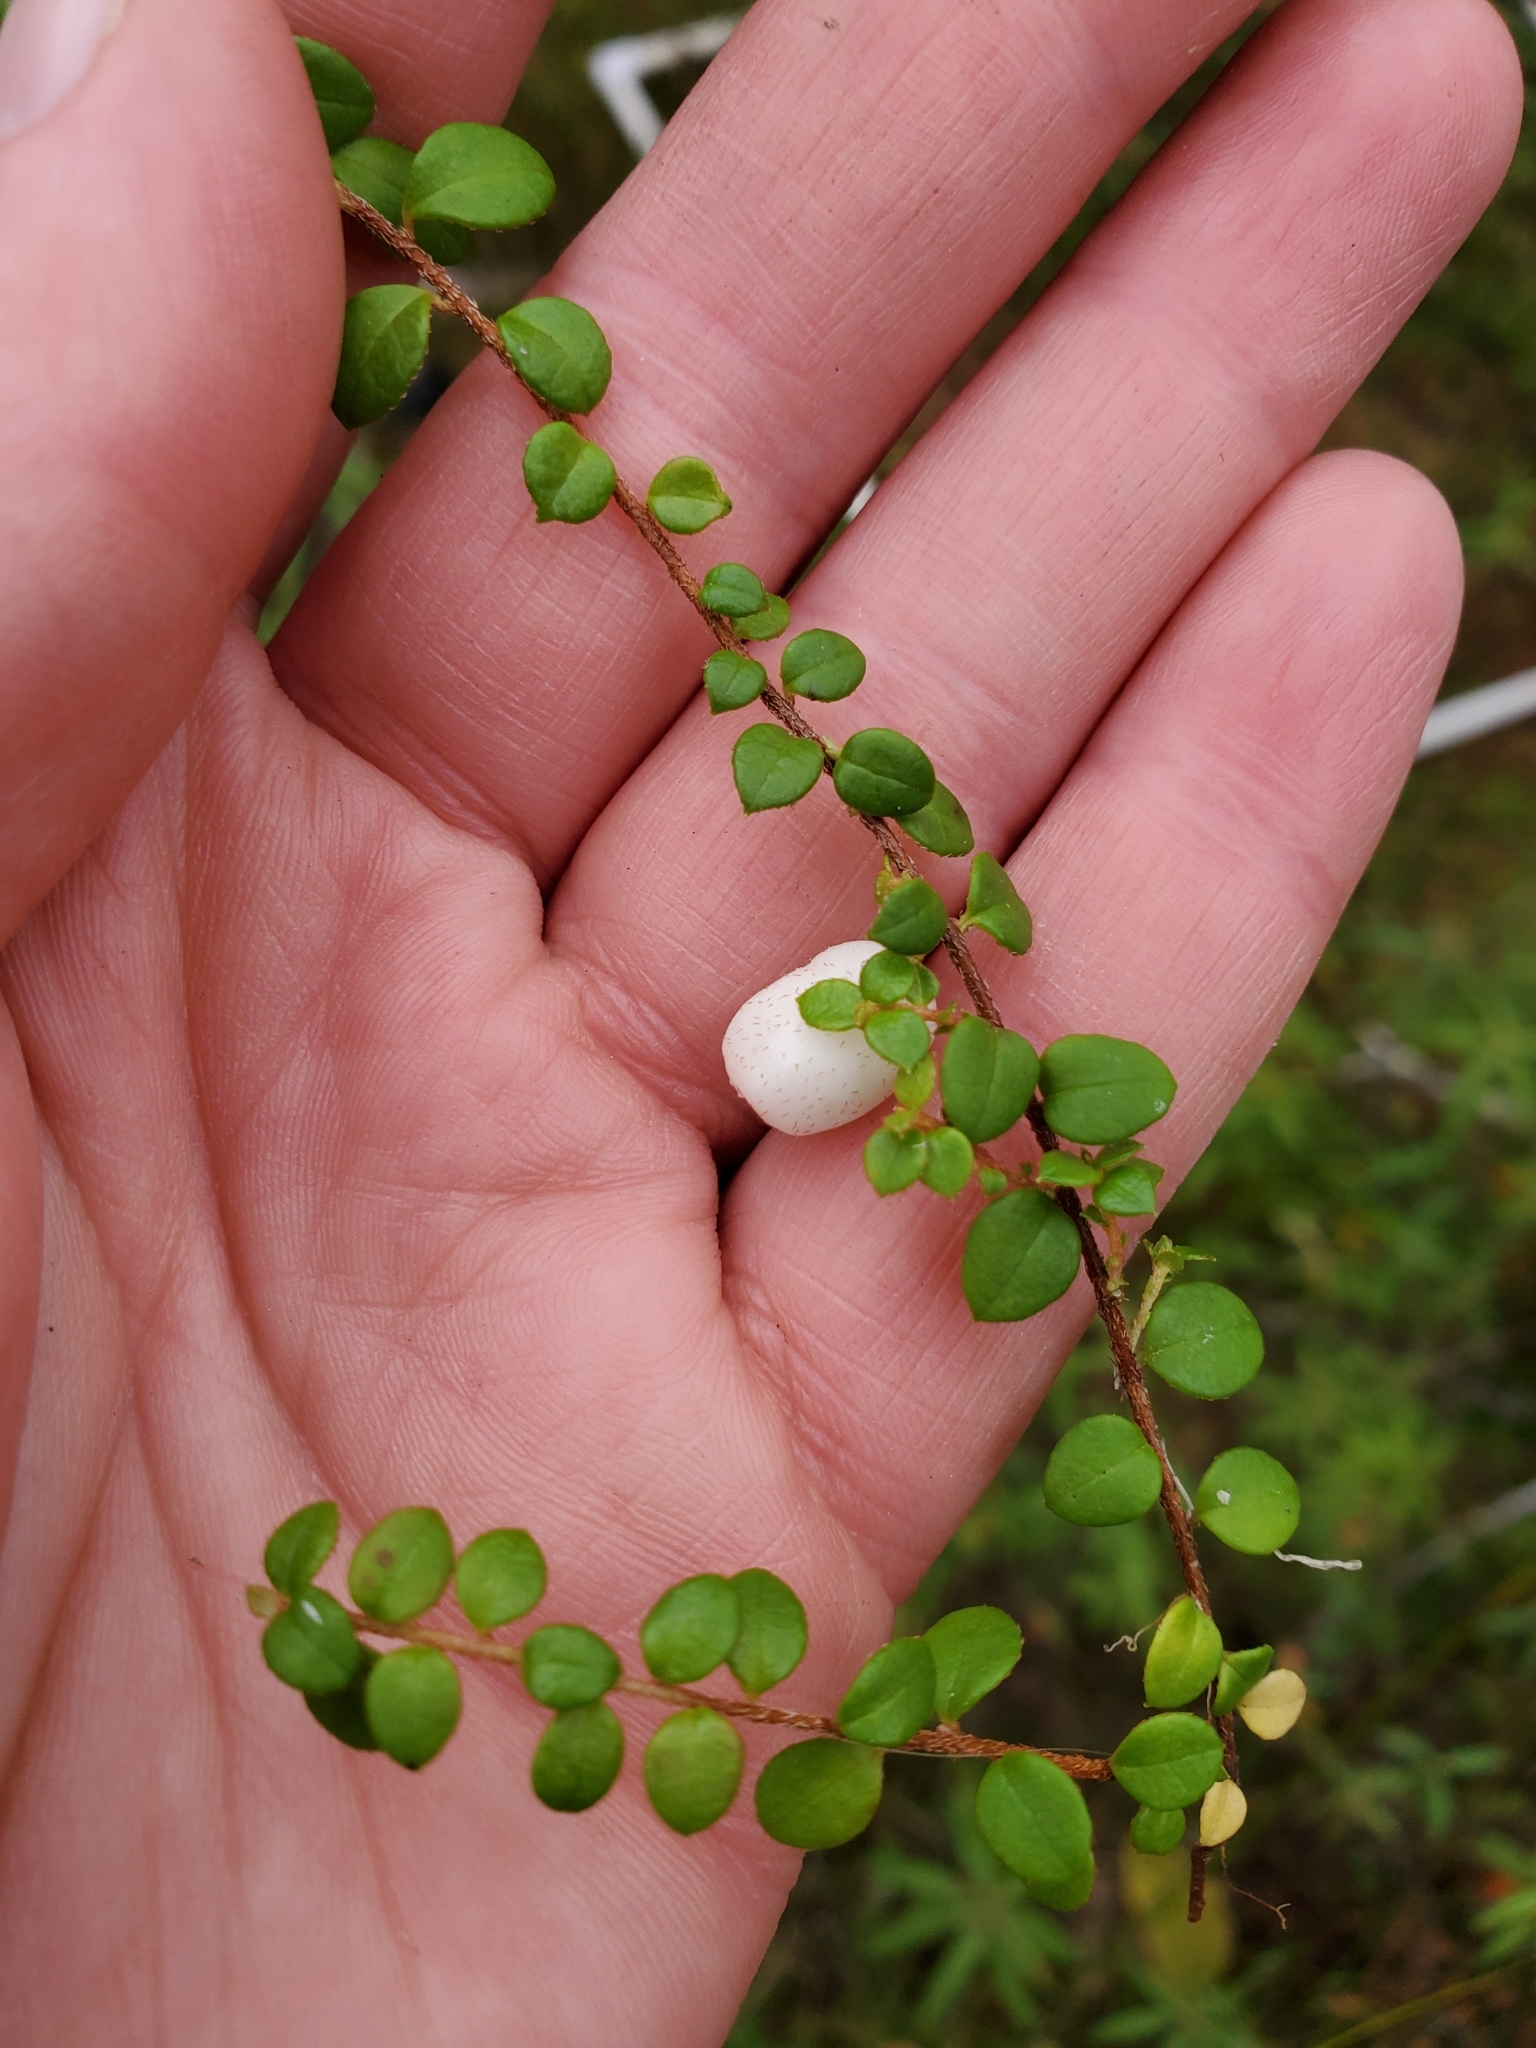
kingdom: Plantae
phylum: Tracheophyta
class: Magnoliopsida
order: Ericales
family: Ericaceae
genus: Gaultheria
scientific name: Gaultheria hispidula
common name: Cancer wintergreen
